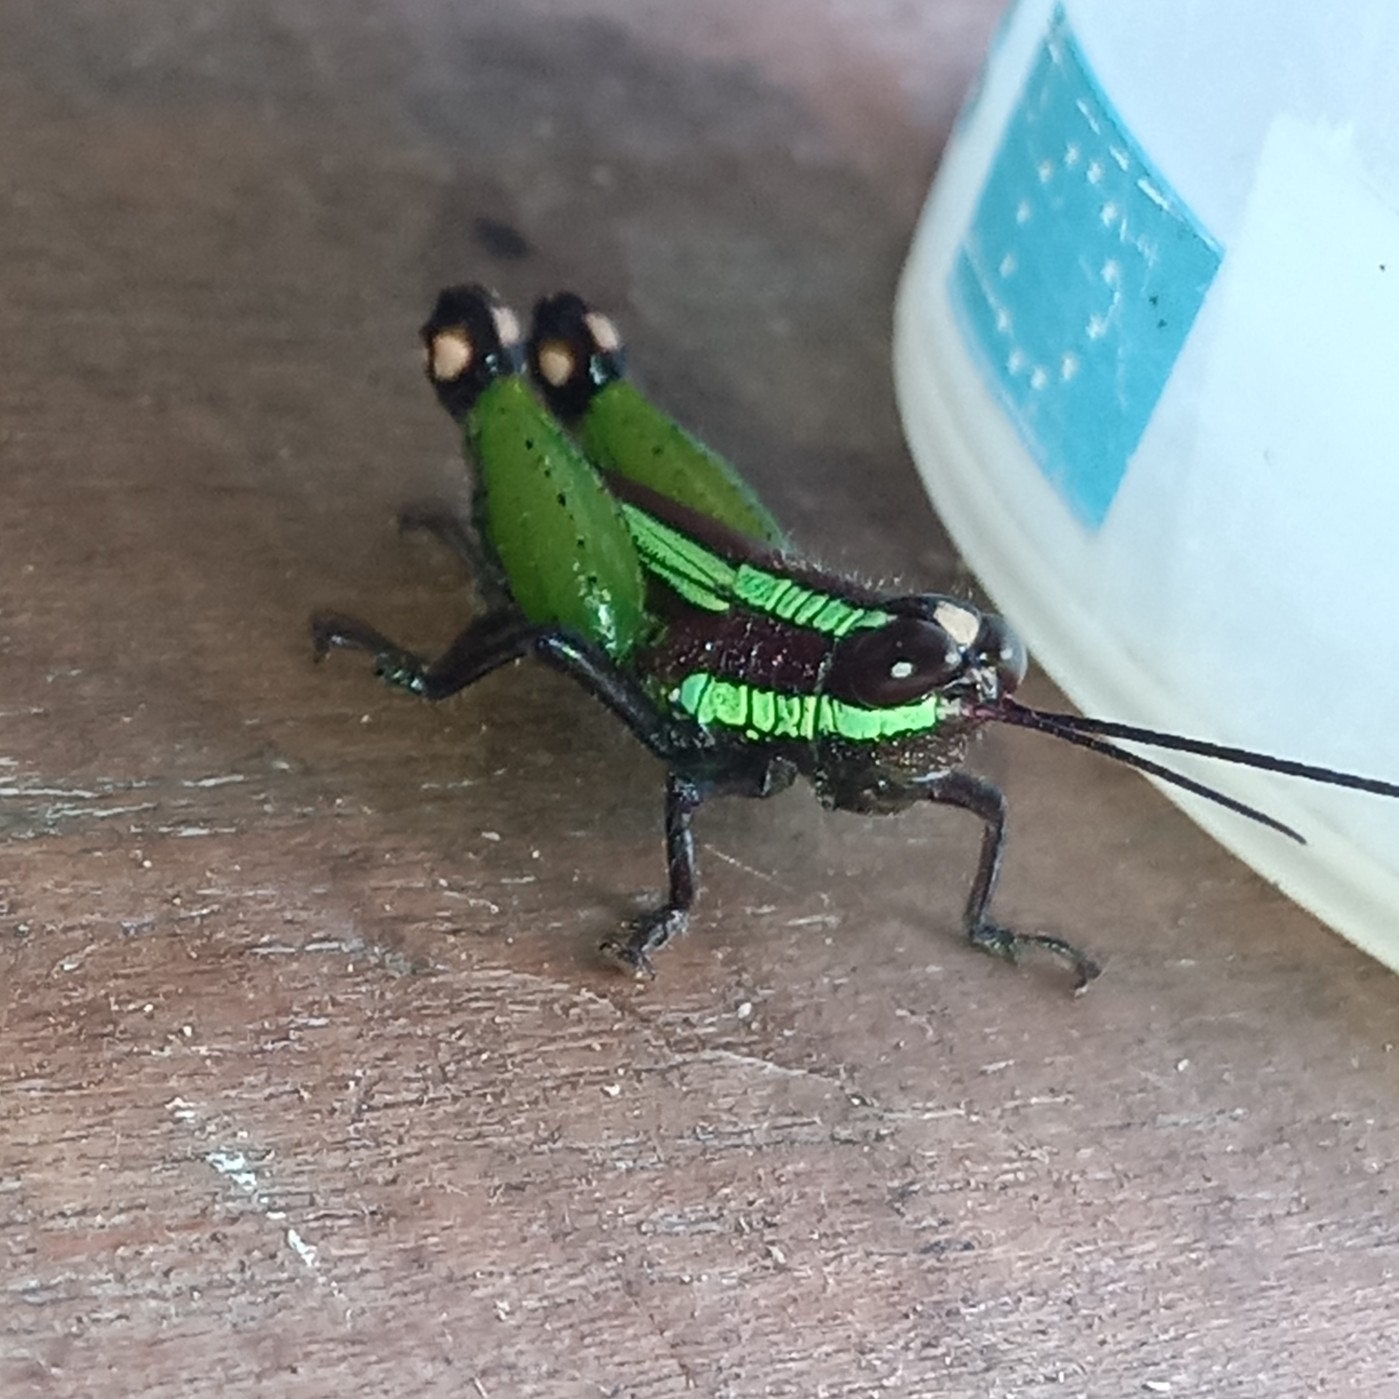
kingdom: Animalia
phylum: Arthropoda
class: Insecta
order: Orthoptera
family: Romaleidae
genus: Othnacris
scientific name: Othnacris surdaster
